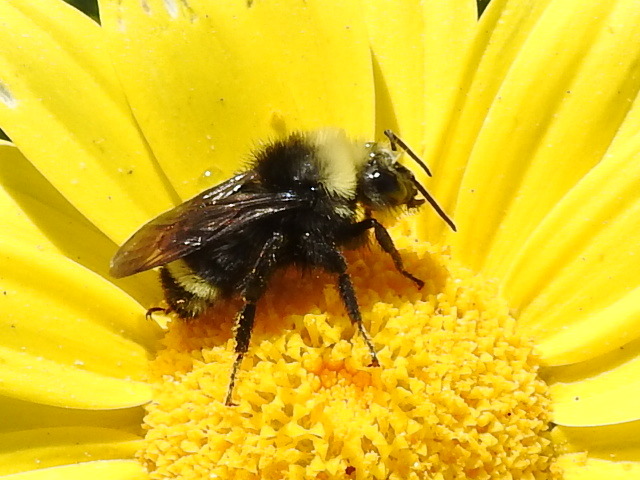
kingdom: Animalia
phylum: Arthropoda
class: Insecta
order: Hymenoptera
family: Apidae
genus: Bombus
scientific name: Bombus vosnesenskii
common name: Vosnesensky bumble bee
